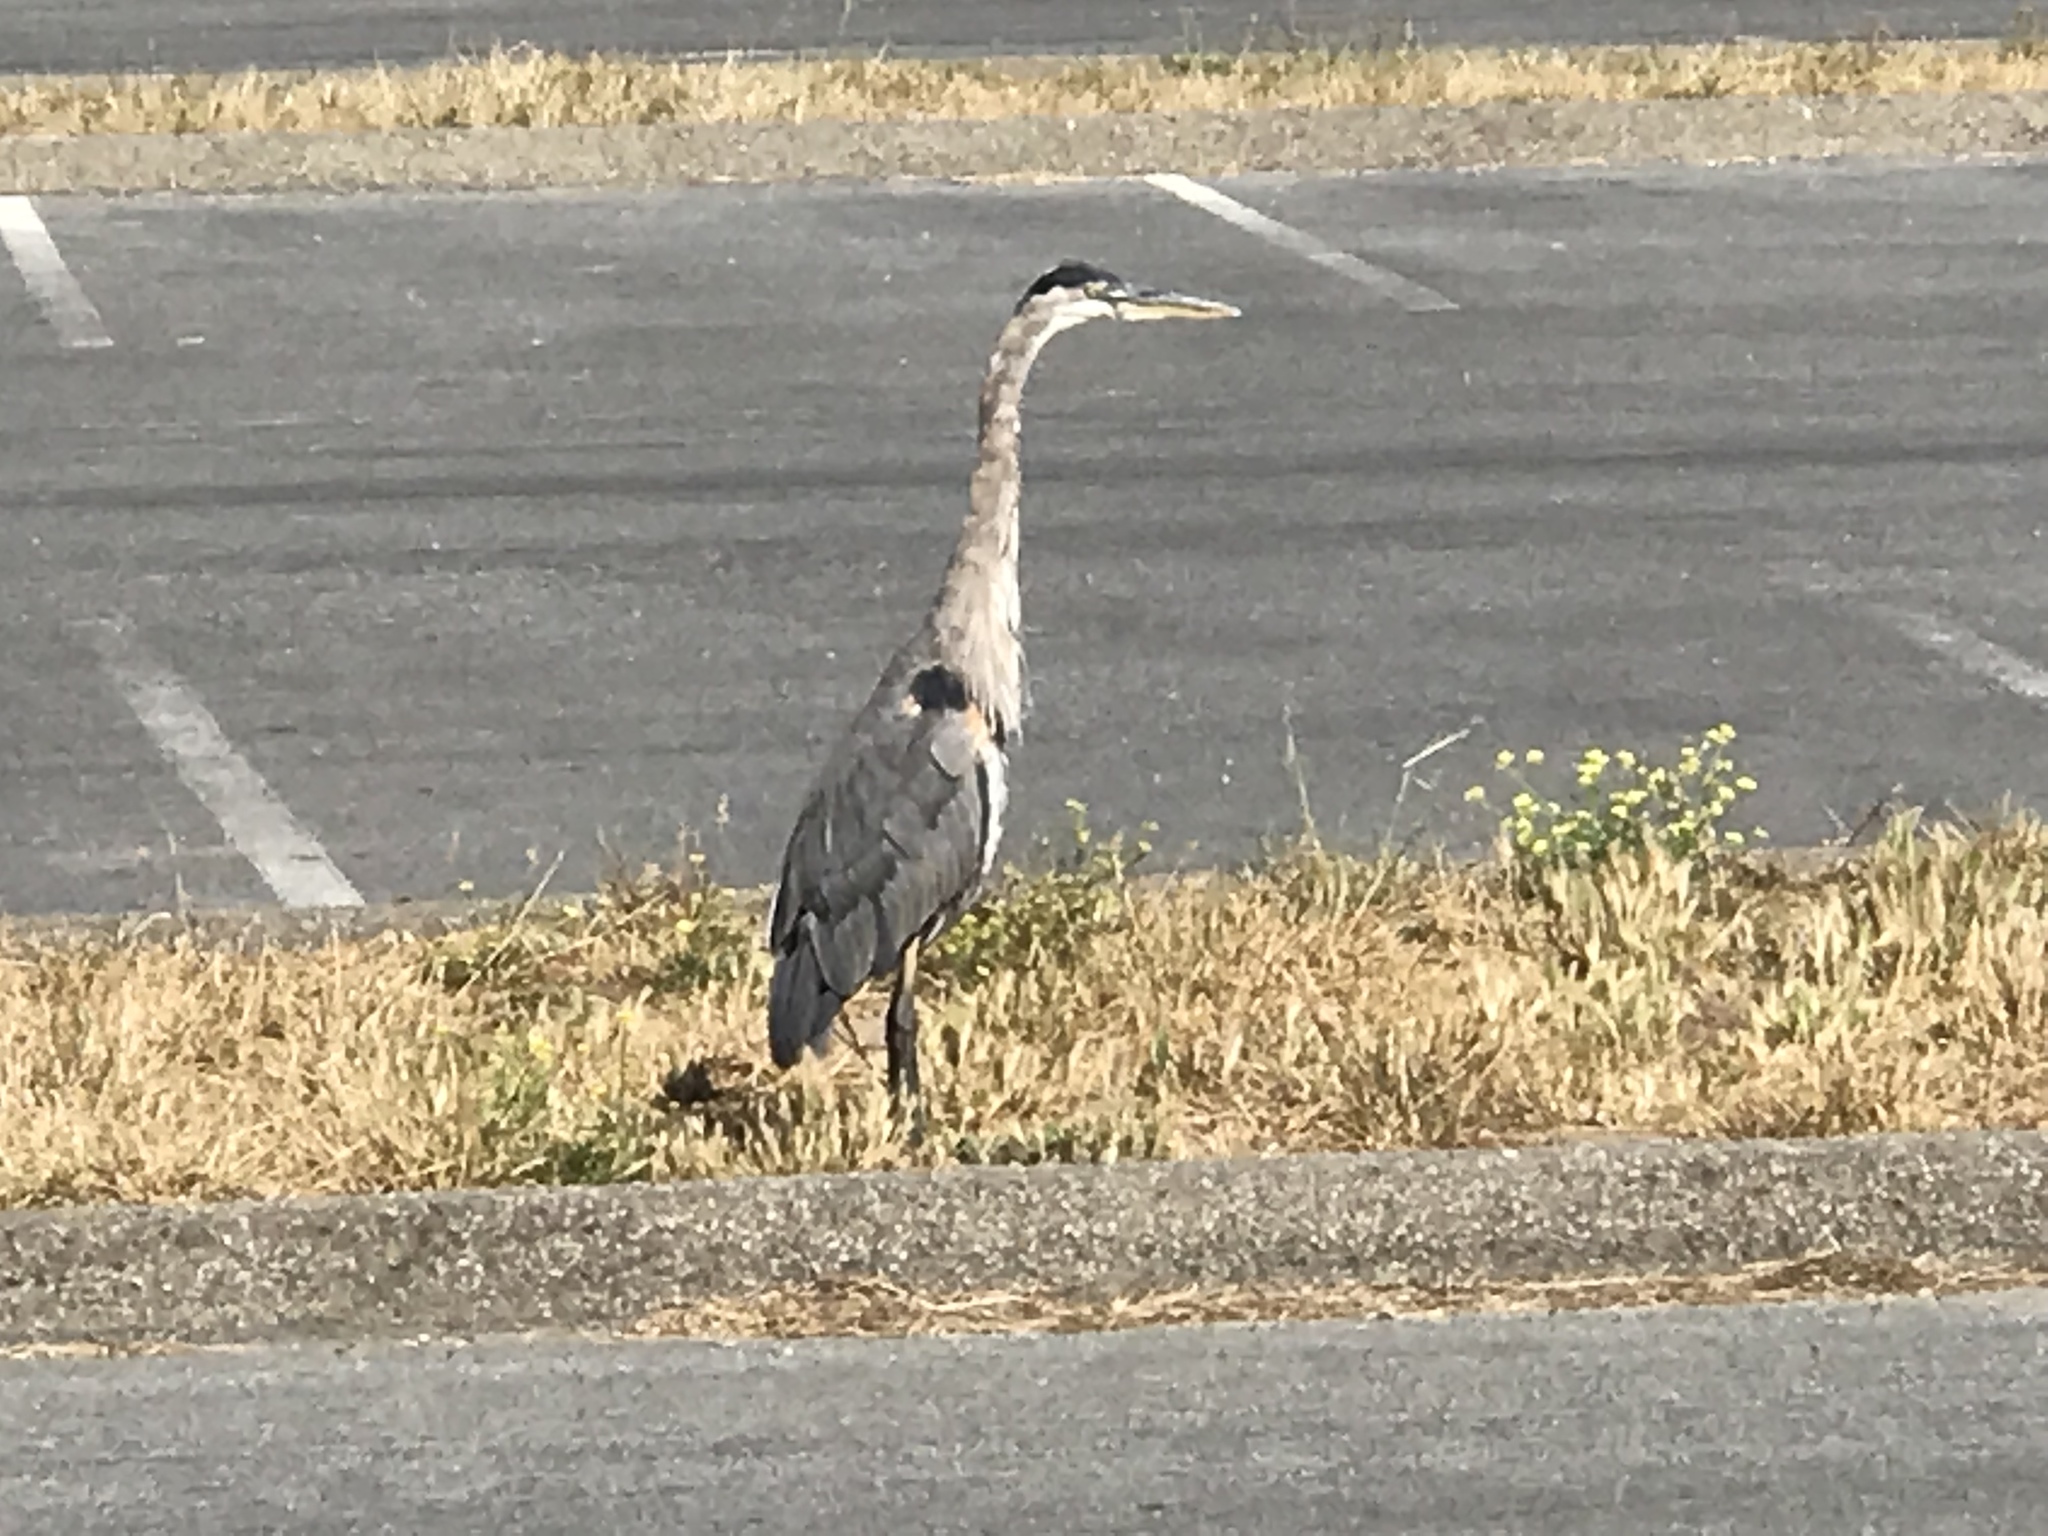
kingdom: Animalia
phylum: Chordata
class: Aves
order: Pelecaniformes
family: Ardeidae
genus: Ardea
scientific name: Ardea herodias
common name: Great blue heron
